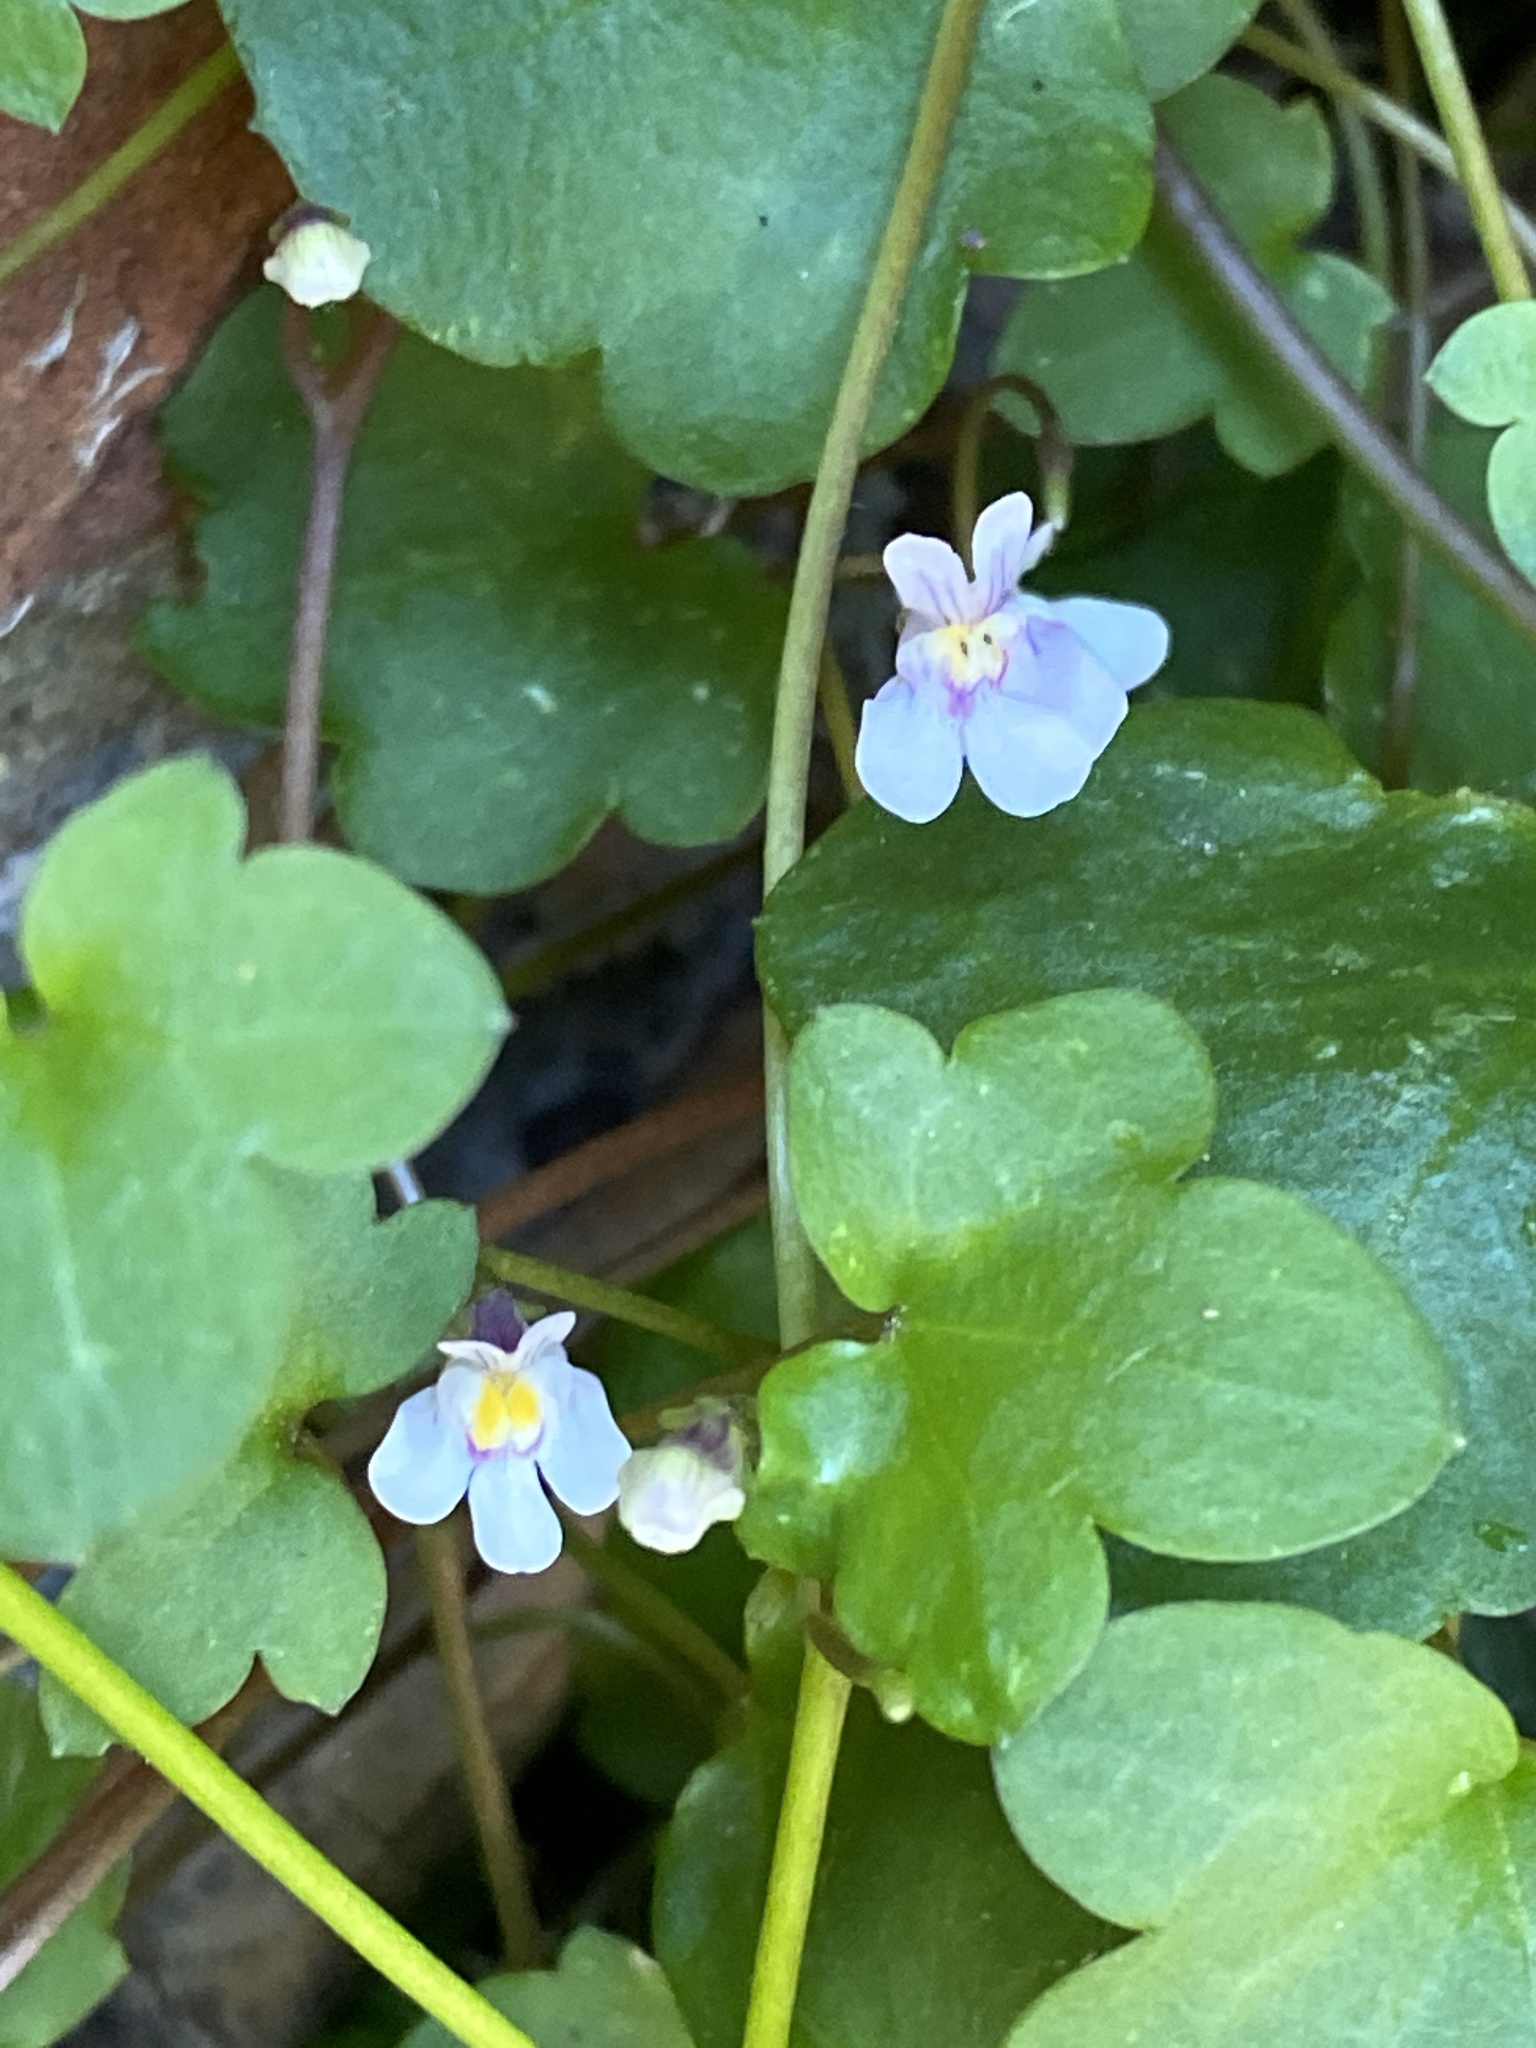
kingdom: Plantae
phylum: Tracheophyta
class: Magnoliopsida
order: Lamiales
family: Plantaginaceae
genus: Cymbalaria
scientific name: Cymbalaria muralis
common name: Ivy-leaved toadflax
